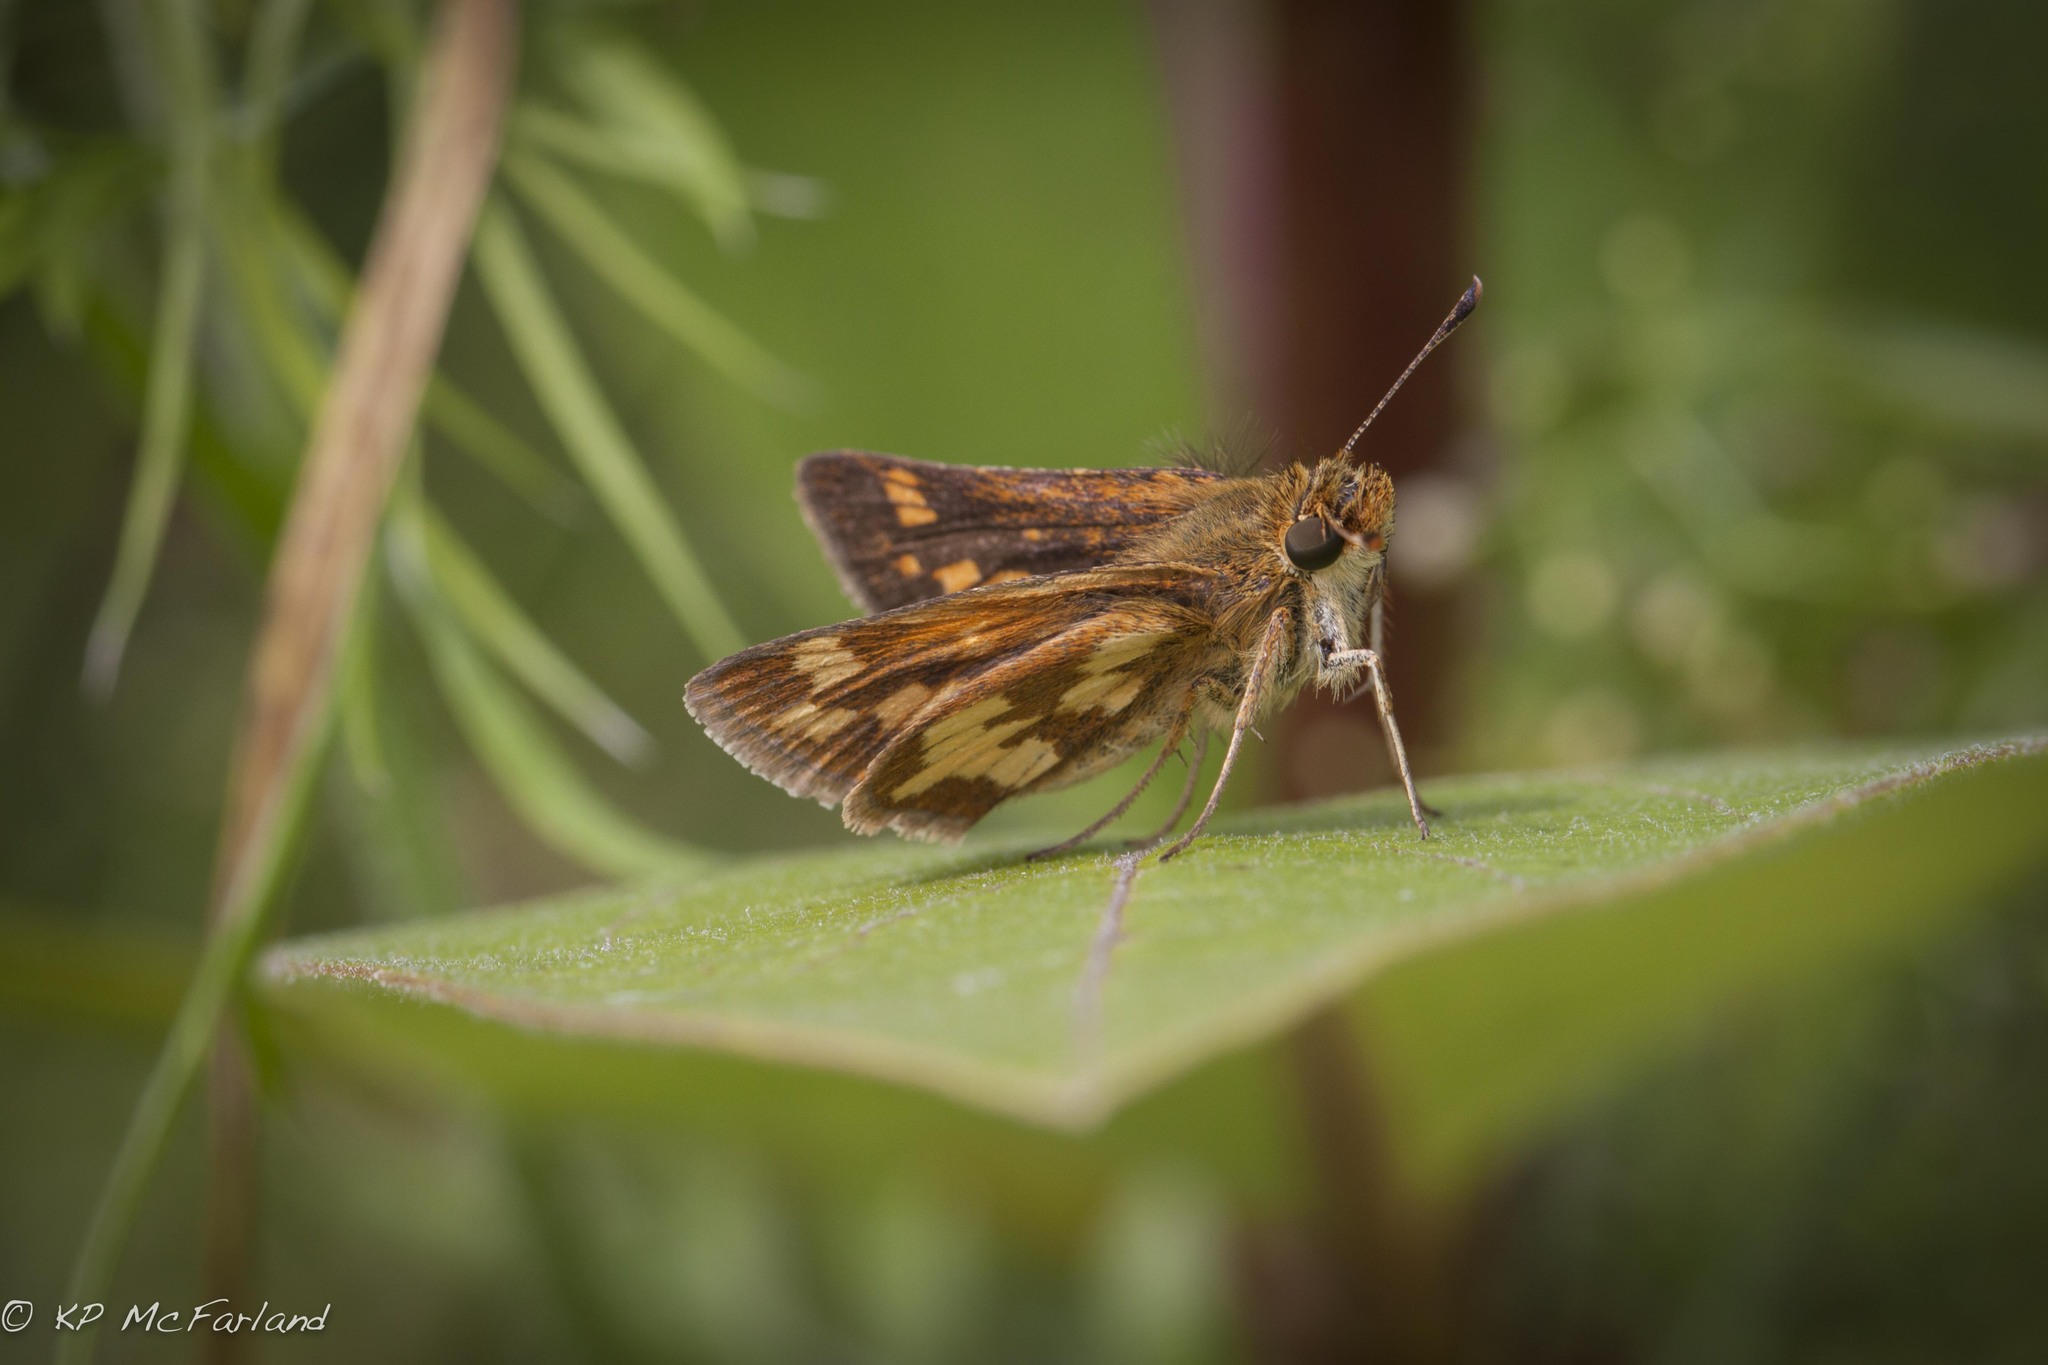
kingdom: Animalia
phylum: Arthropoda
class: Insecta
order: Lepidoptera
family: Hesperiidae
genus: Polites
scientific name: Polites coras
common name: Peck's skipper
